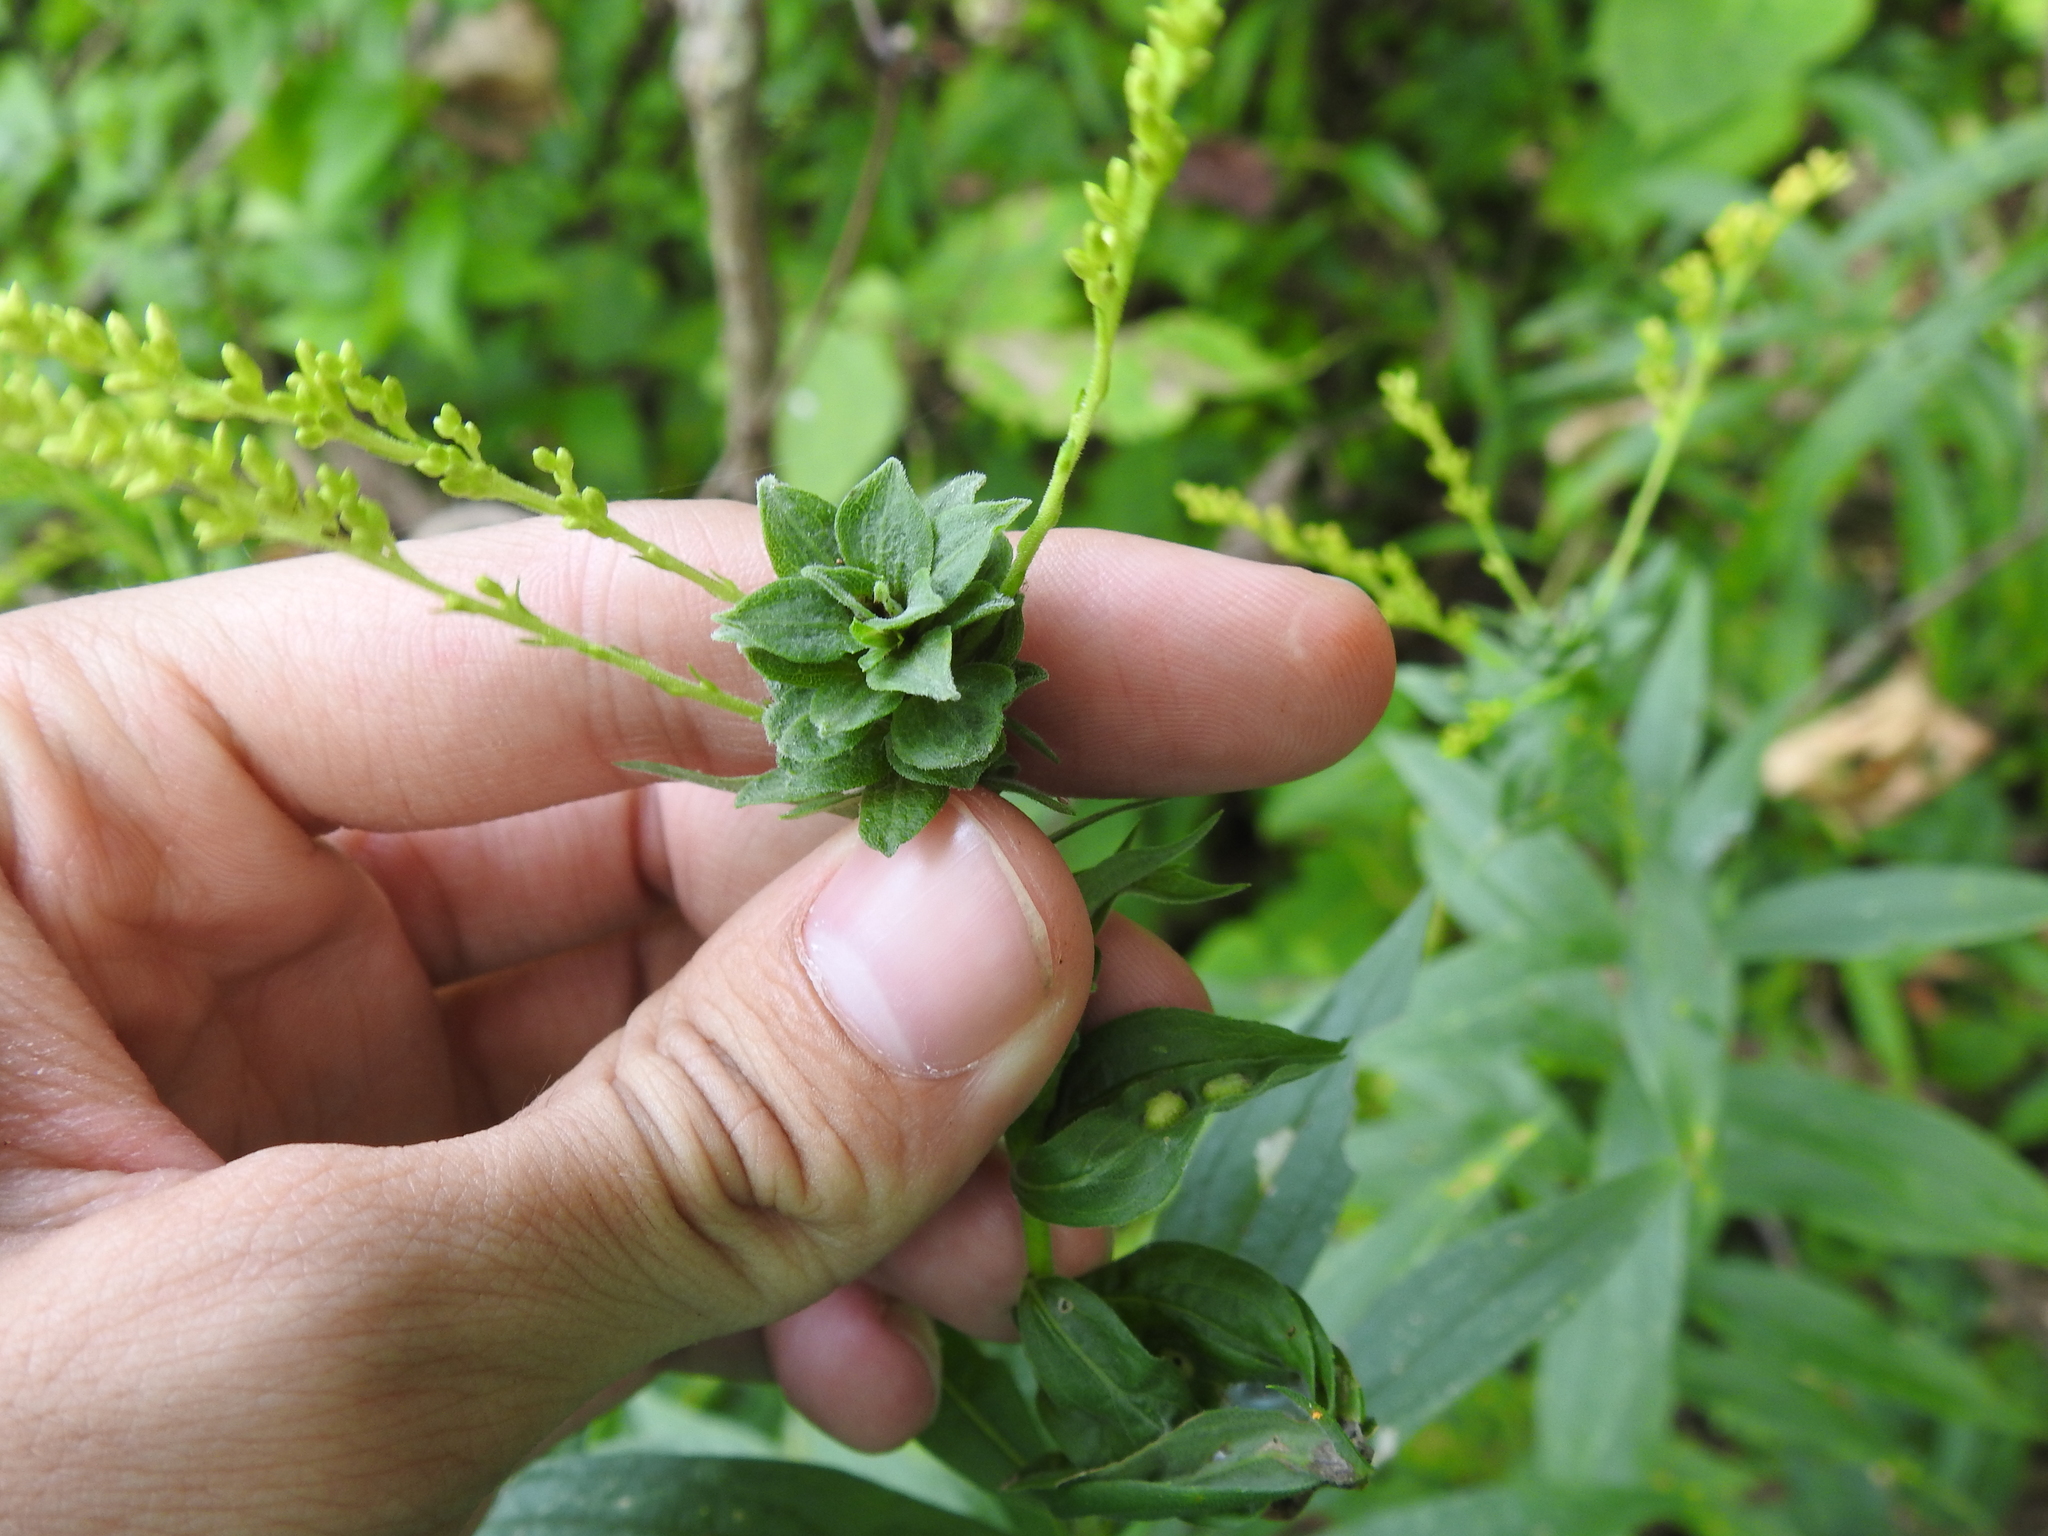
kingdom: Animalia
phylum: Arthropoda
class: Insecta
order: Diptera
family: Cecidomyiidae
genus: Asphondylia
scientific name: Asphondylia solidaginis
